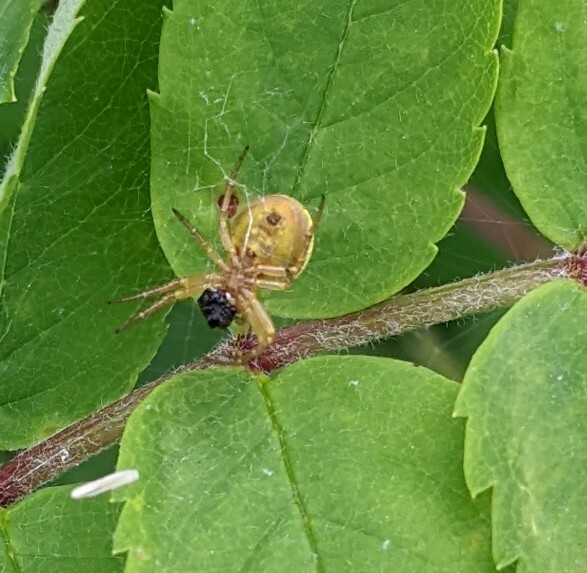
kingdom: Animalia
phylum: Arthropoda
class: Arachnida
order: Araneae
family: Araneidae
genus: Araniella
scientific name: Araniella displicata
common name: Sixspotted orb weaver
